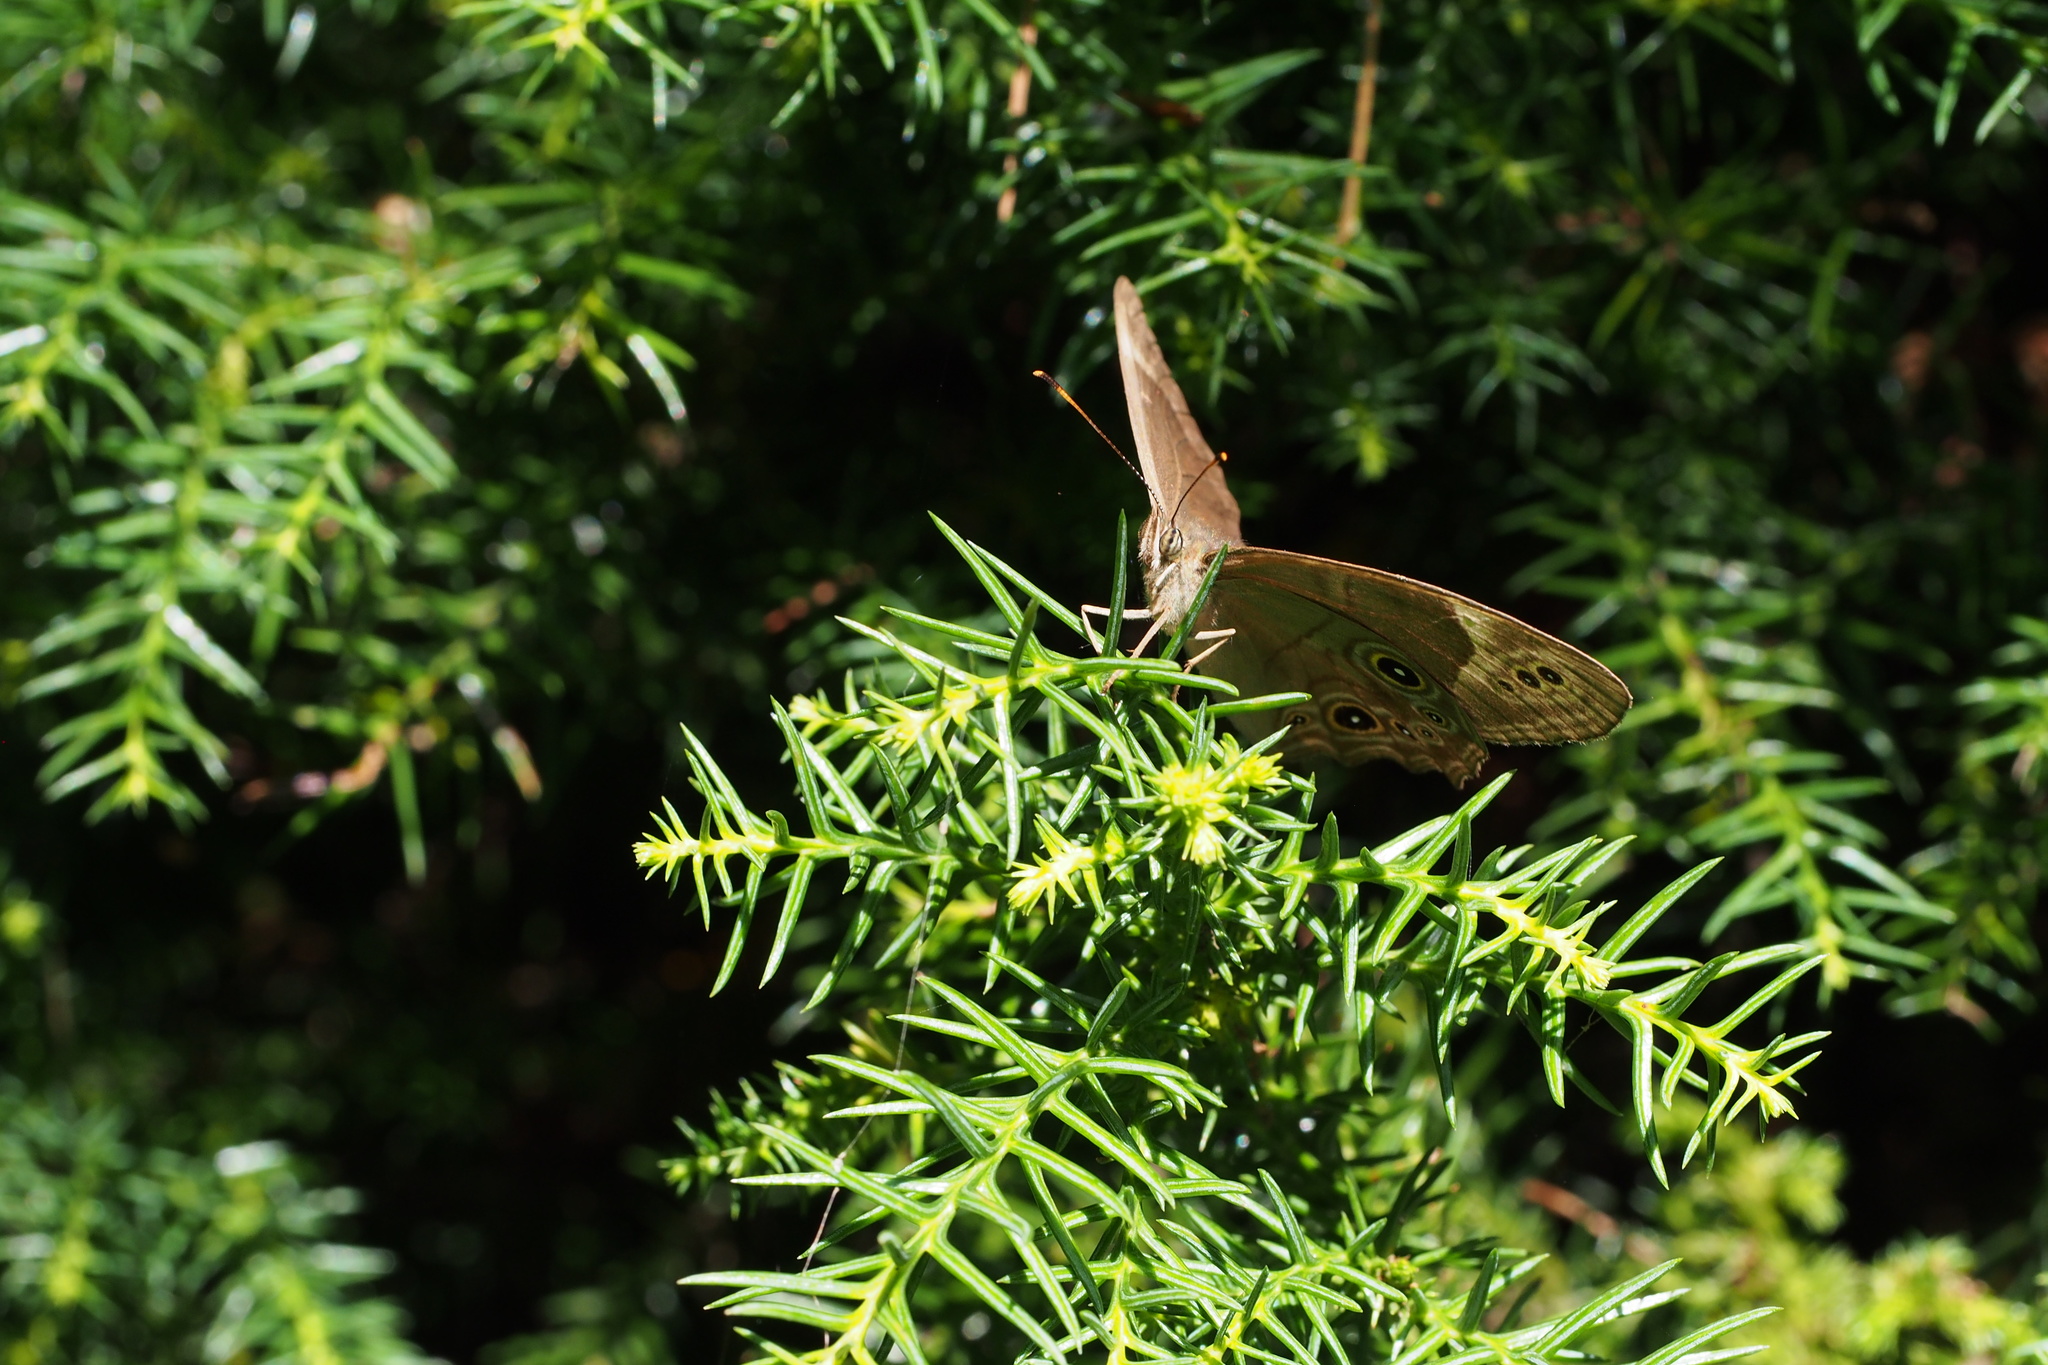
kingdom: Animalia
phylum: Arthropoda
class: Insecta
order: Lepidoptera
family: Nymphalidae
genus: Lethe
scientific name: Lethe diana
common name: Diana treebrown
